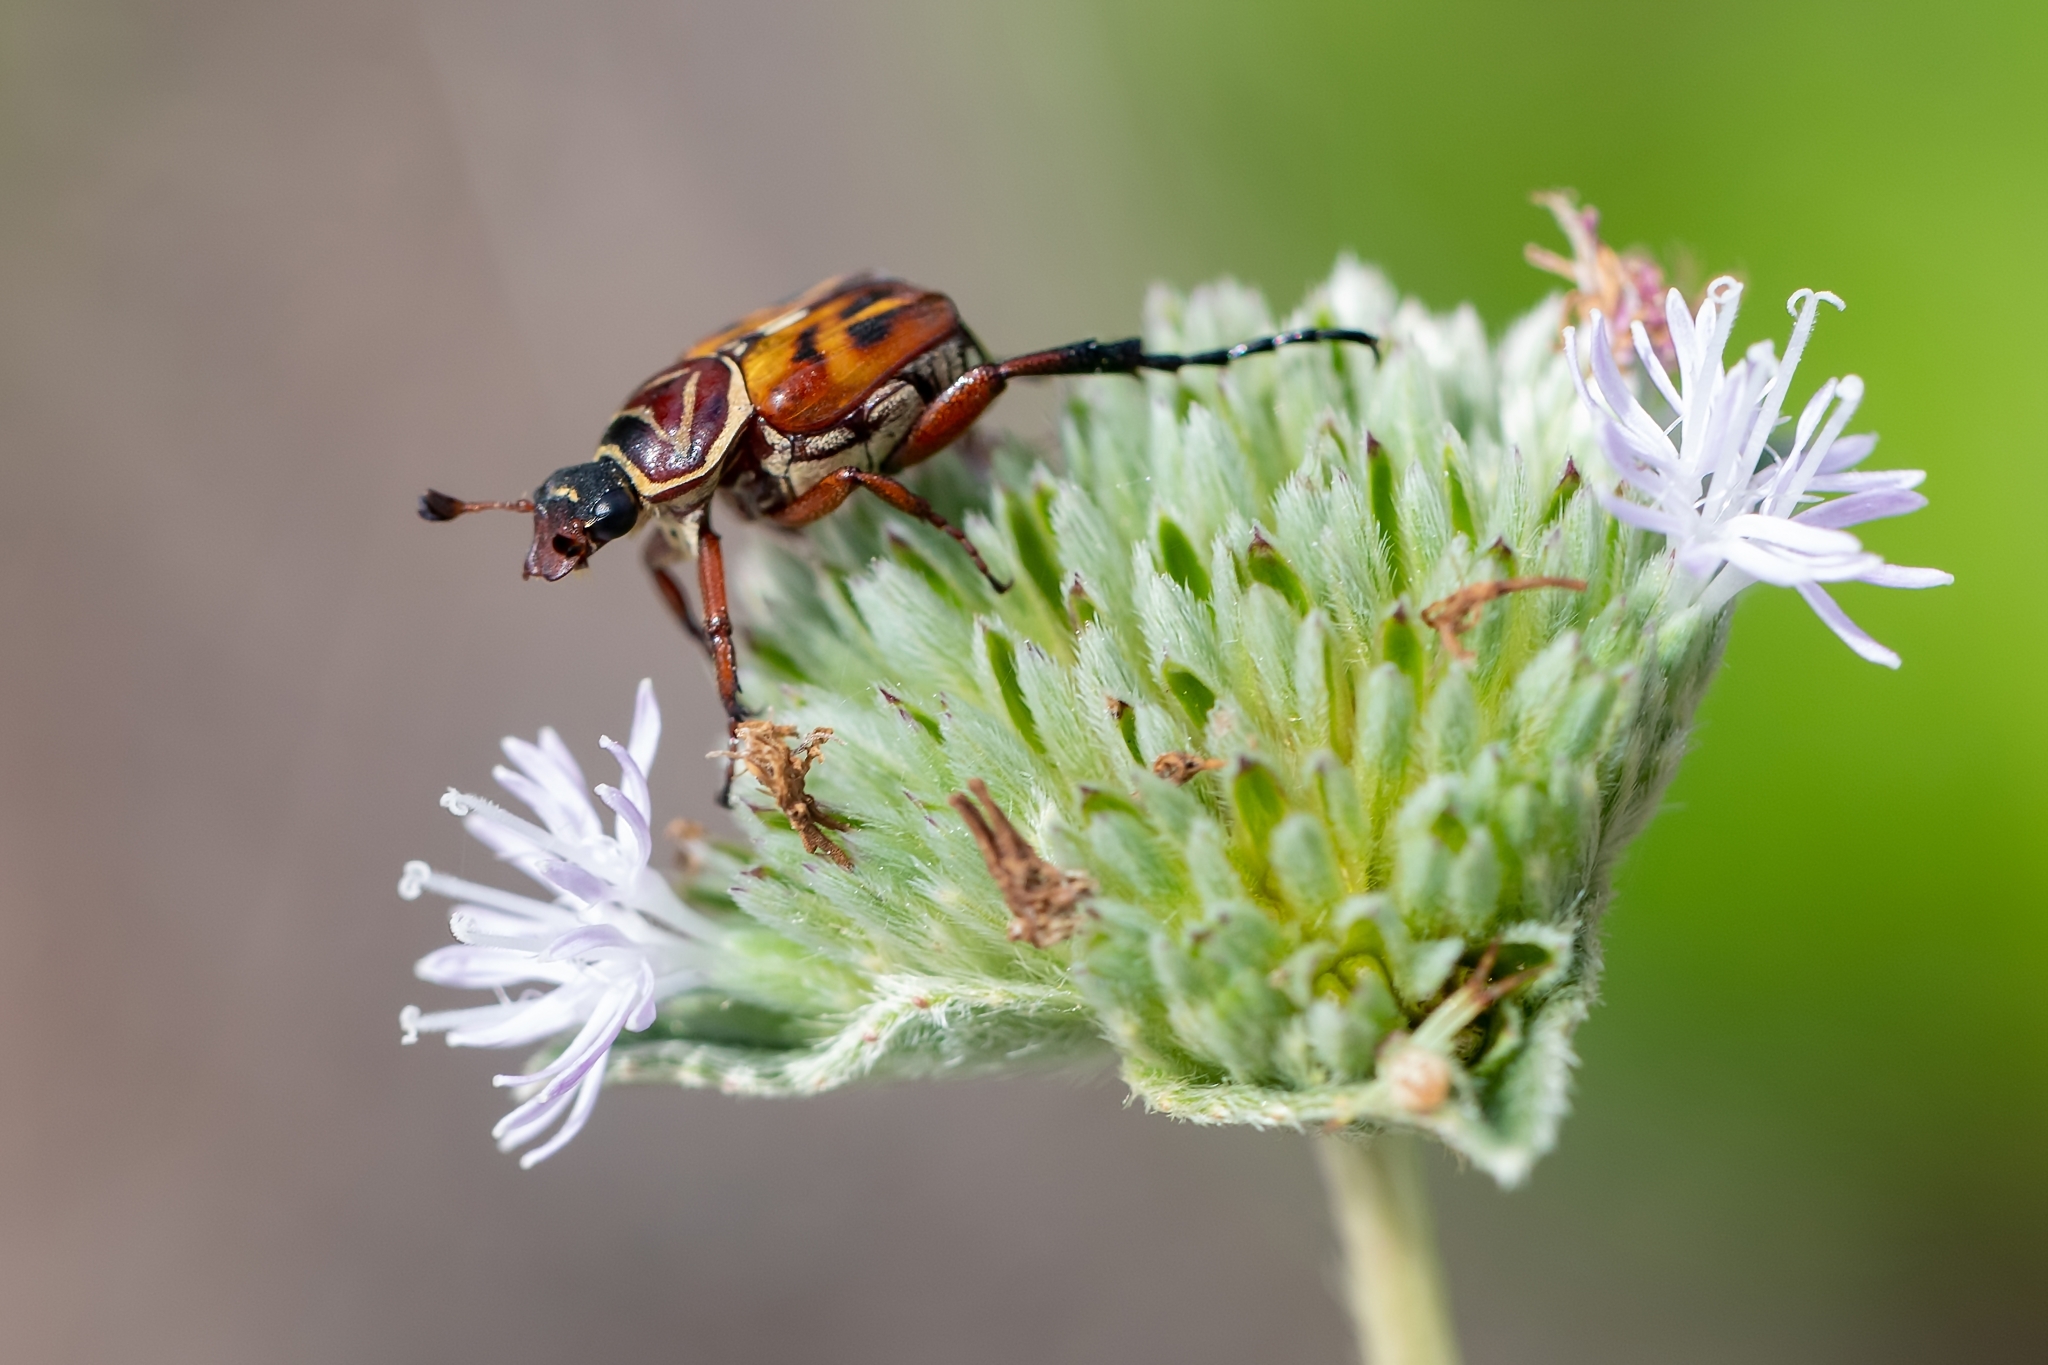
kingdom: Animalia
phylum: Arthropoda
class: Insecta
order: Coleoptera
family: Scarabaeidae
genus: Trigonopeltastes
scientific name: Trigonopeltastes delta
